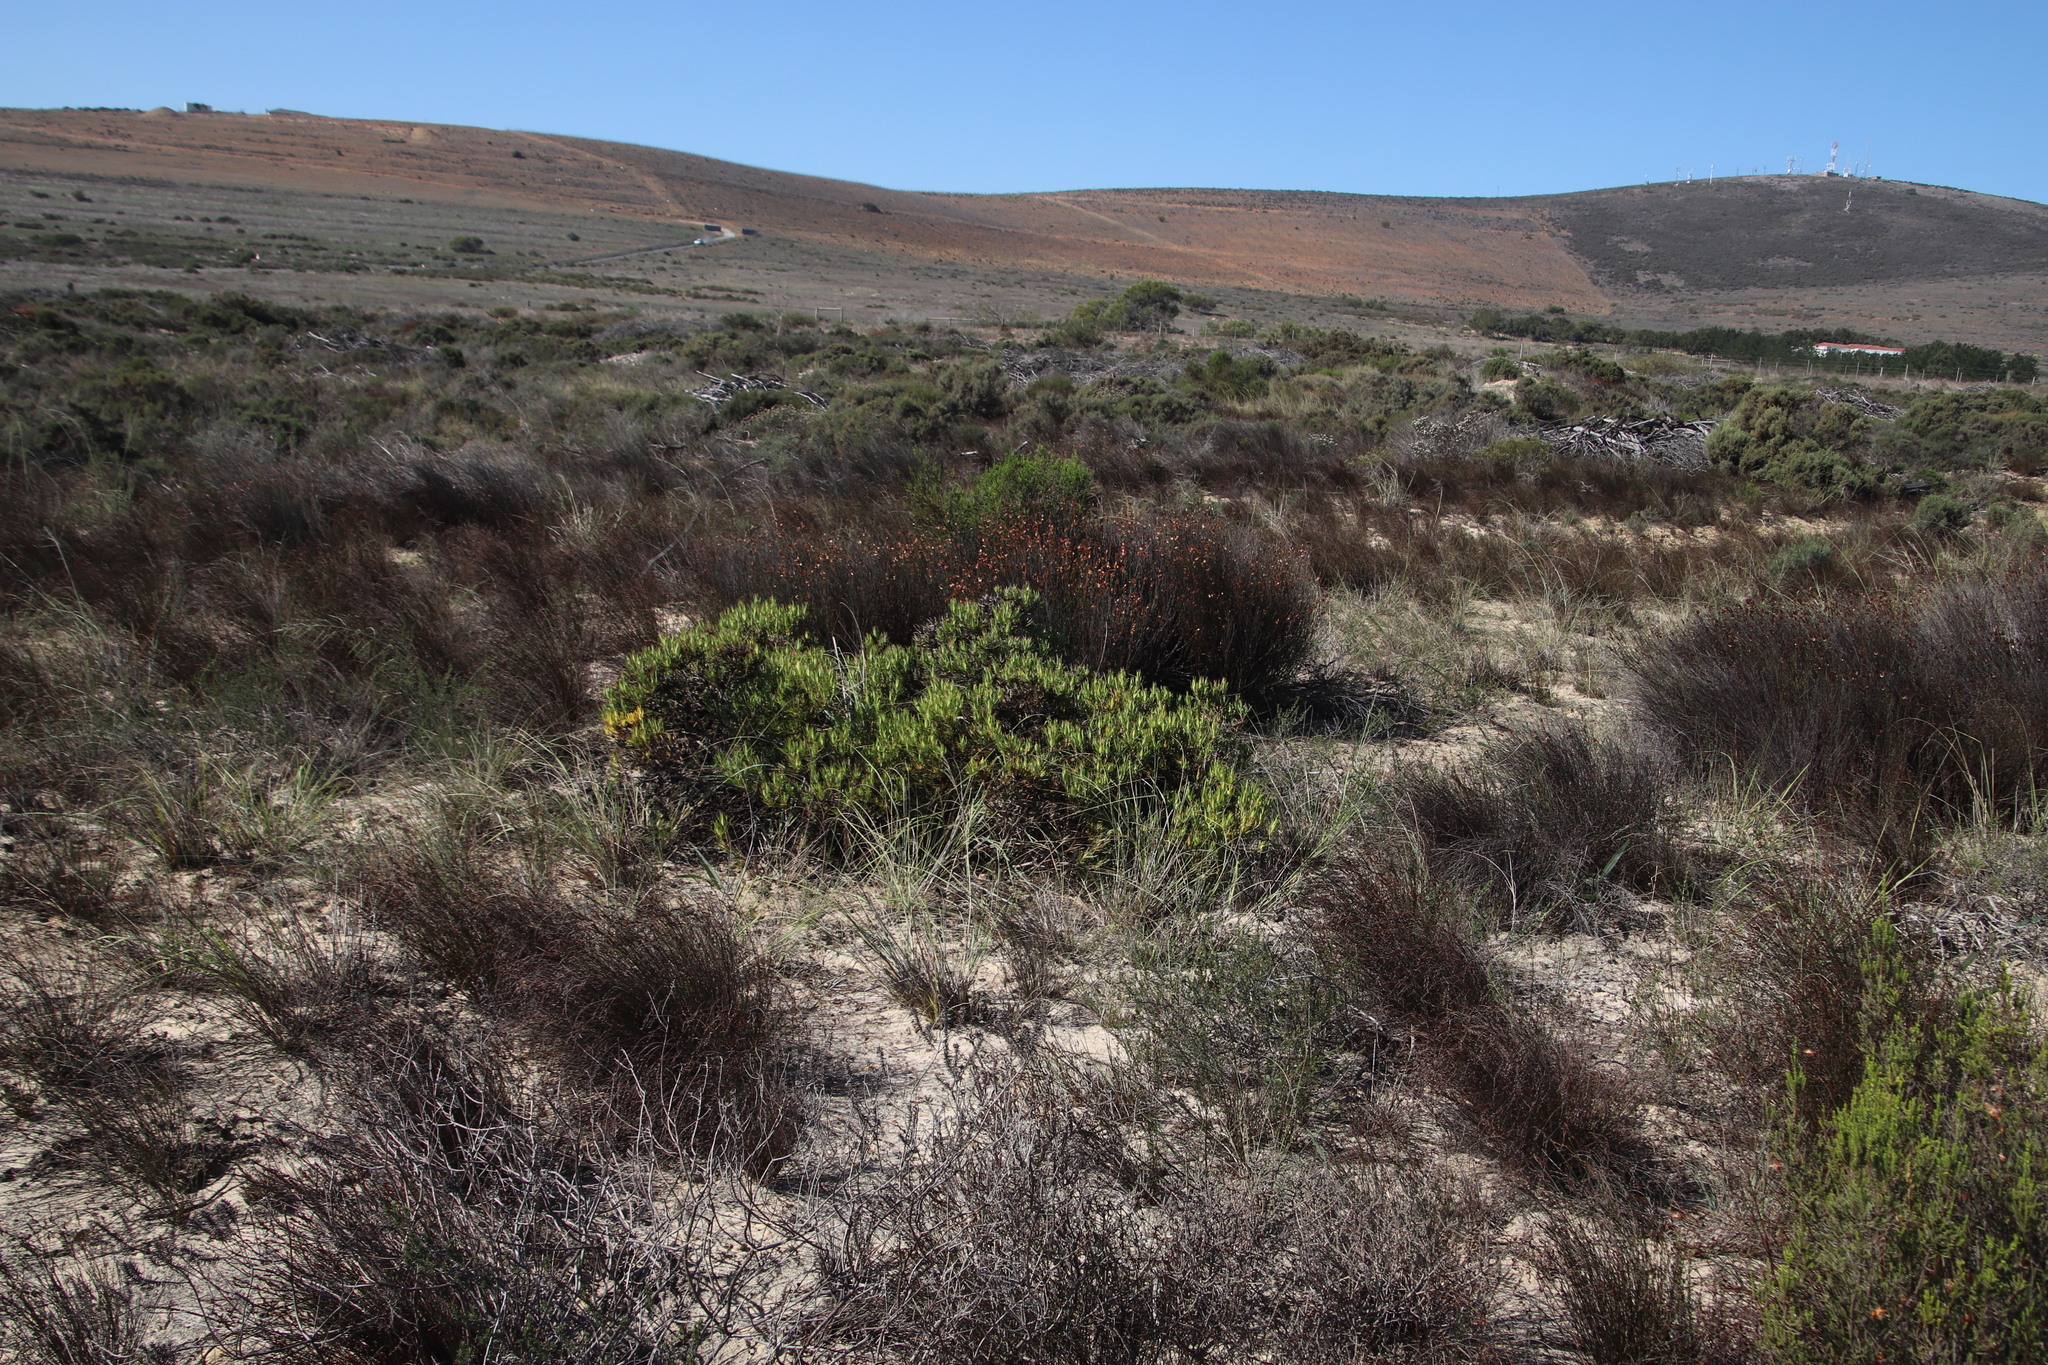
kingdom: Plantae
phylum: Tracheophyta
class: Magnoliopsida
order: Proteales
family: Proteaceae
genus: Leucadendron
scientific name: Leucadendron salignum
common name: Common sunshine conebush
